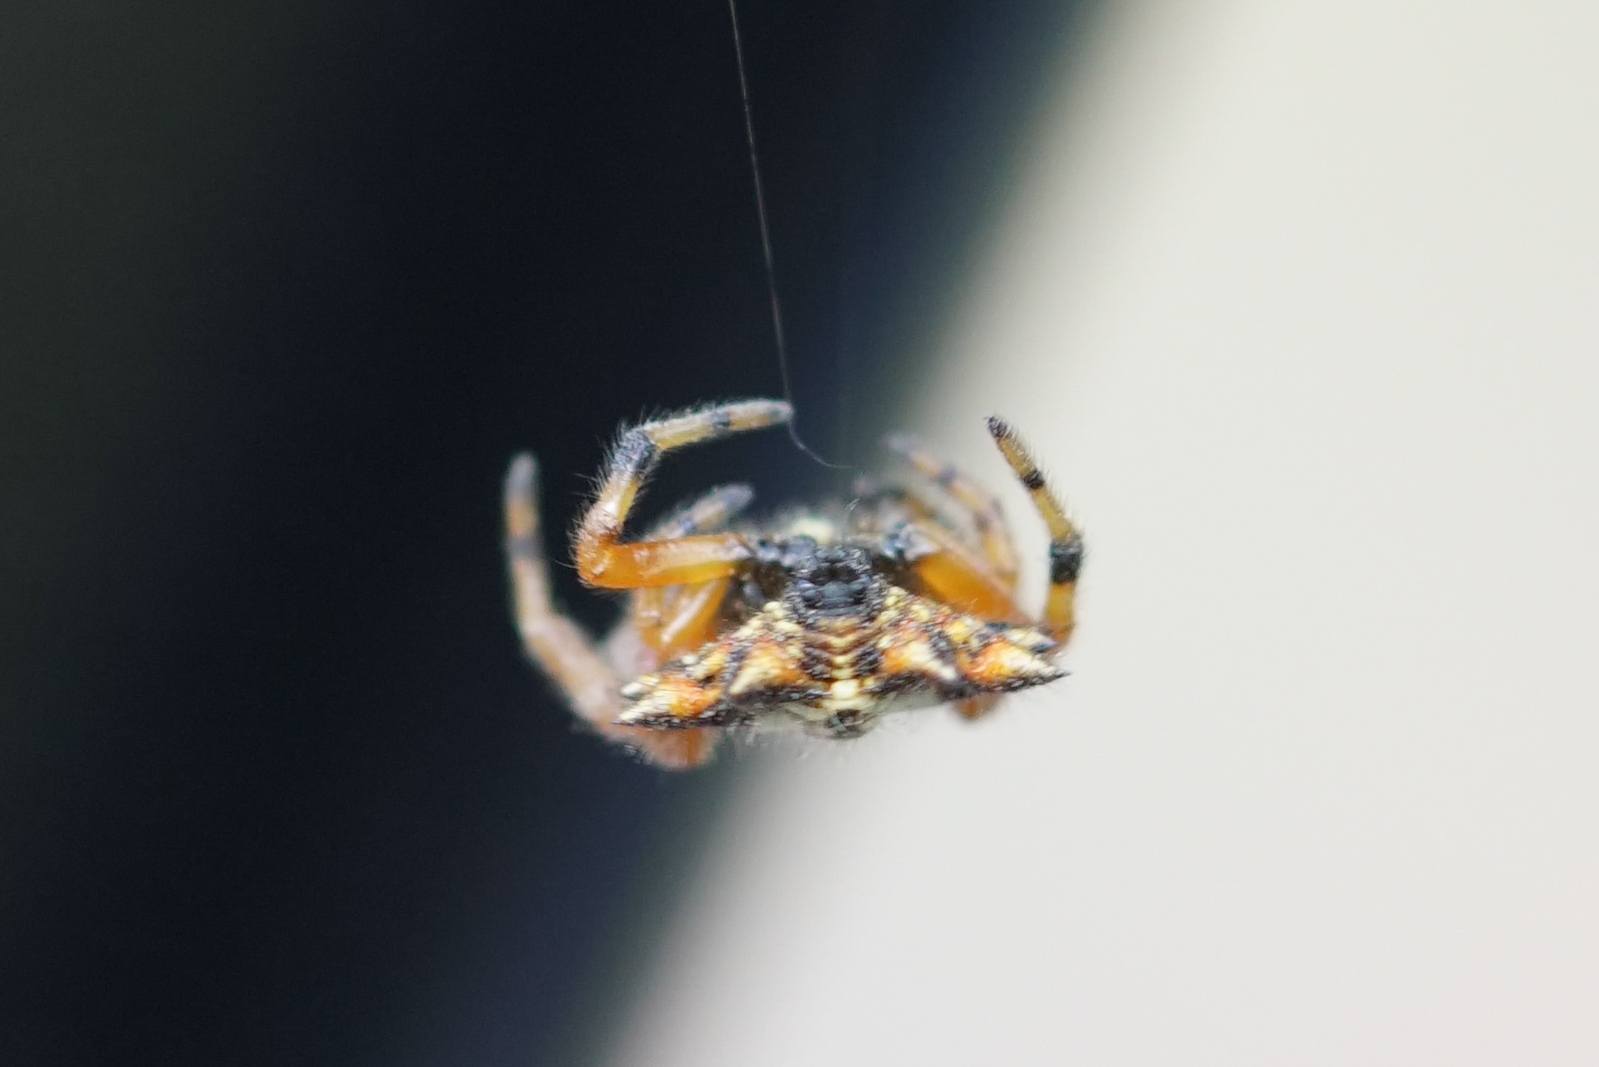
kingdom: Animalia
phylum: Arthropoda
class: Arachnida
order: Araneae
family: Araneidae
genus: Austracantha
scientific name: Austracantha minax
